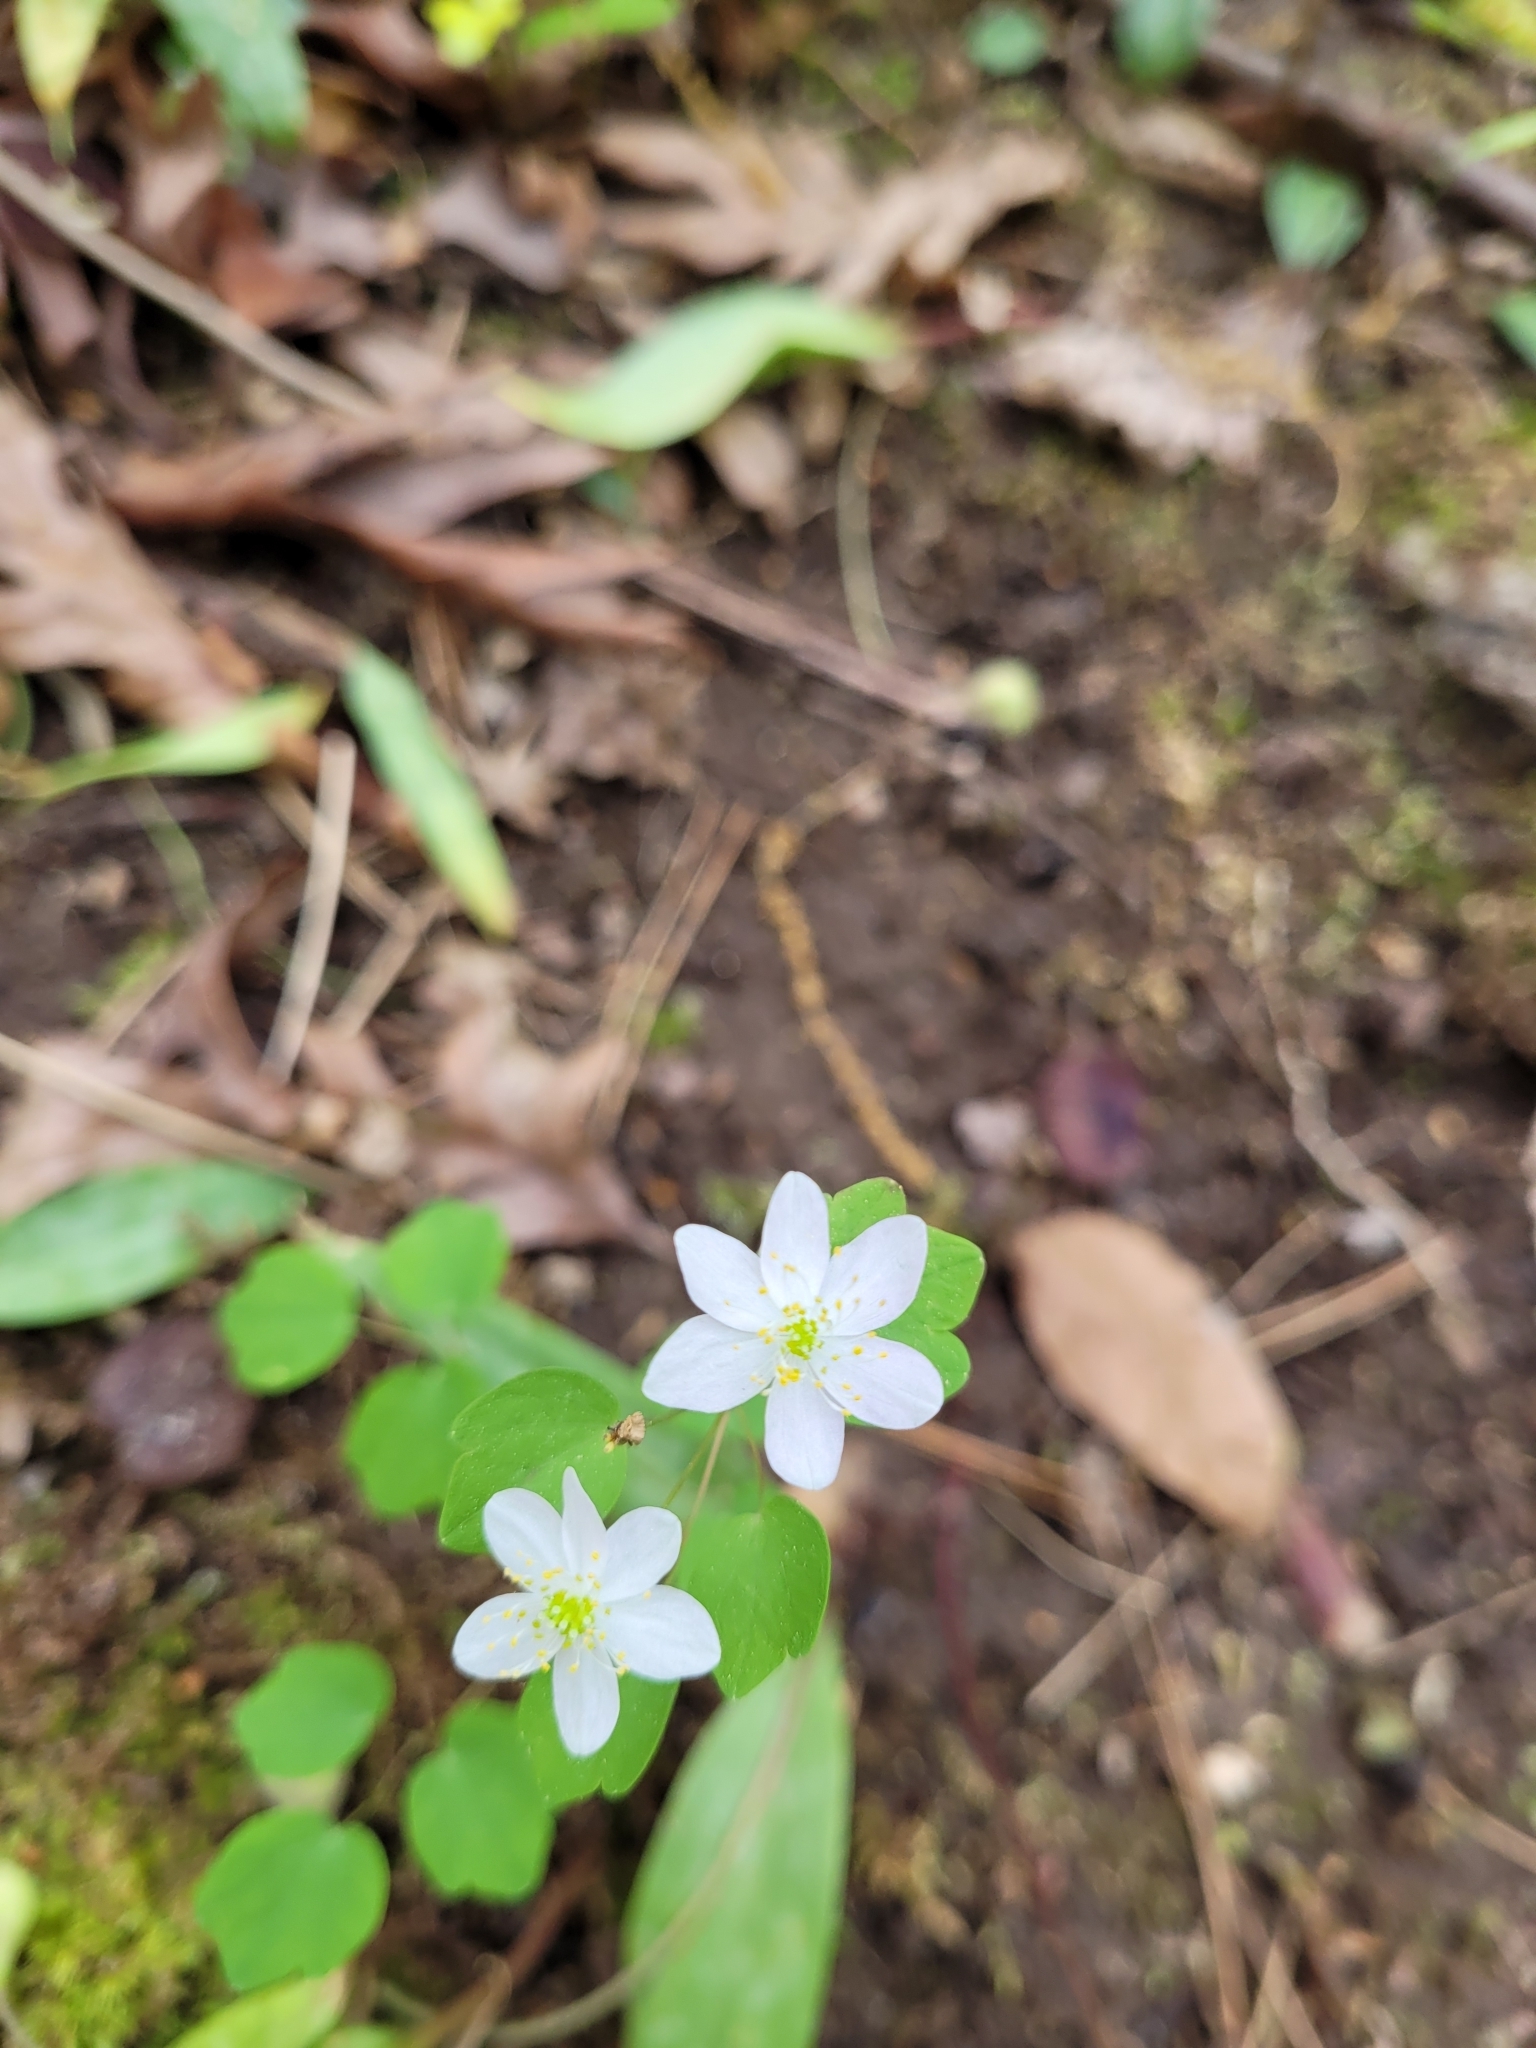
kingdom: Plantae
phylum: Tracheophyta
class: Magnoliopsida
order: Ranunculales
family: Ranunculaceae
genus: Thalictrum
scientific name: Thalictrum thalictroides
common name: Rue-anemone
